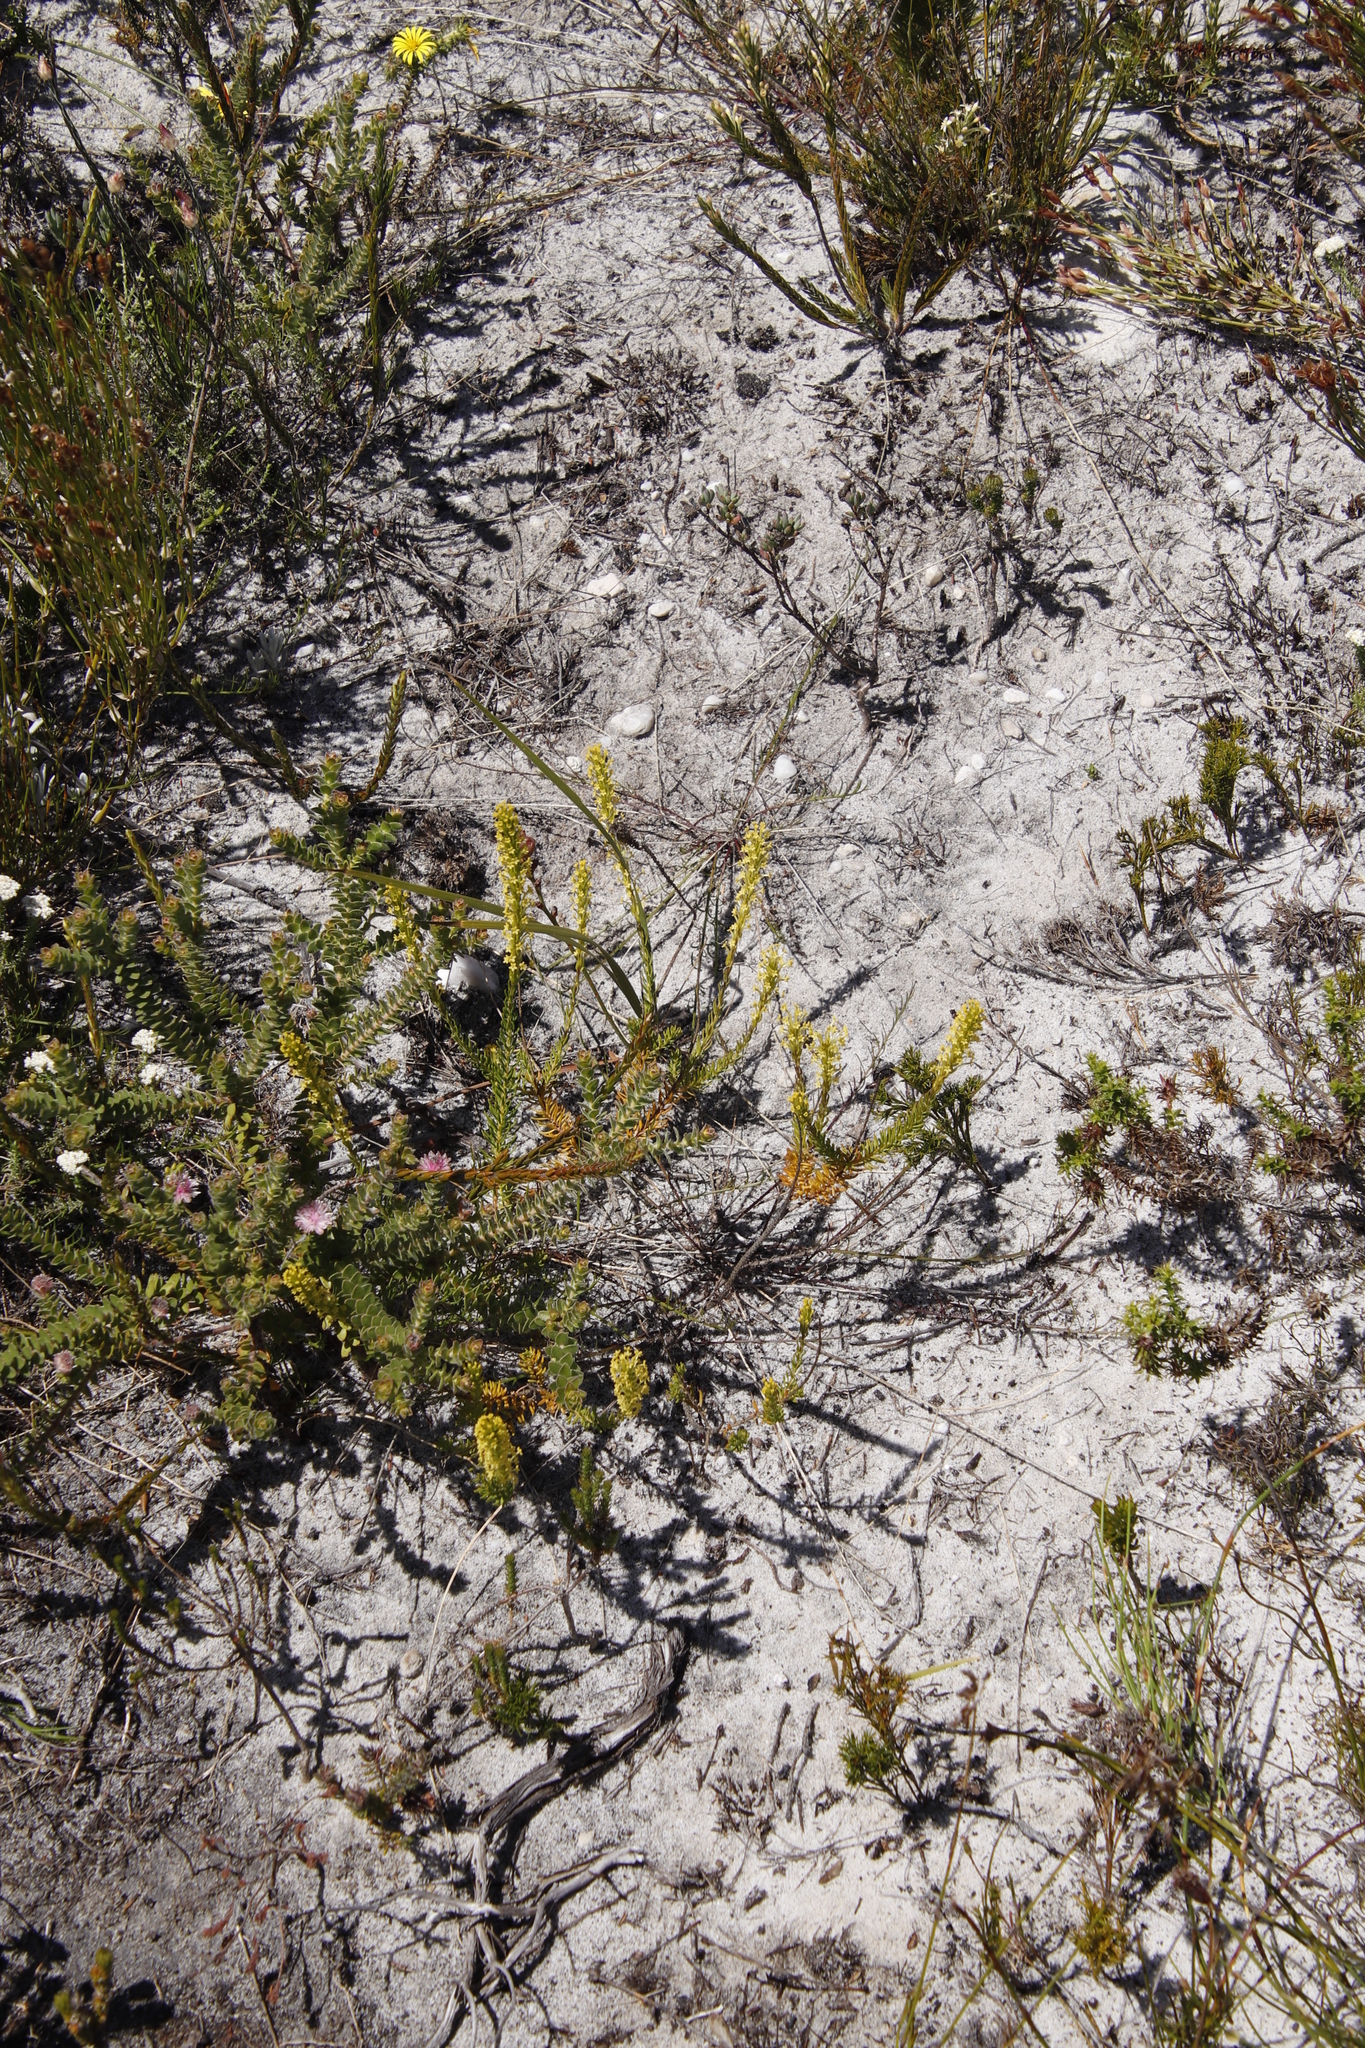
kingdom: Plantae
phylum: Tracheophyta
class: Magnoliopsida
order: Lamiales
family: Scrophulariaceae
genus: Microdon
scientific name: Microdon dubius
